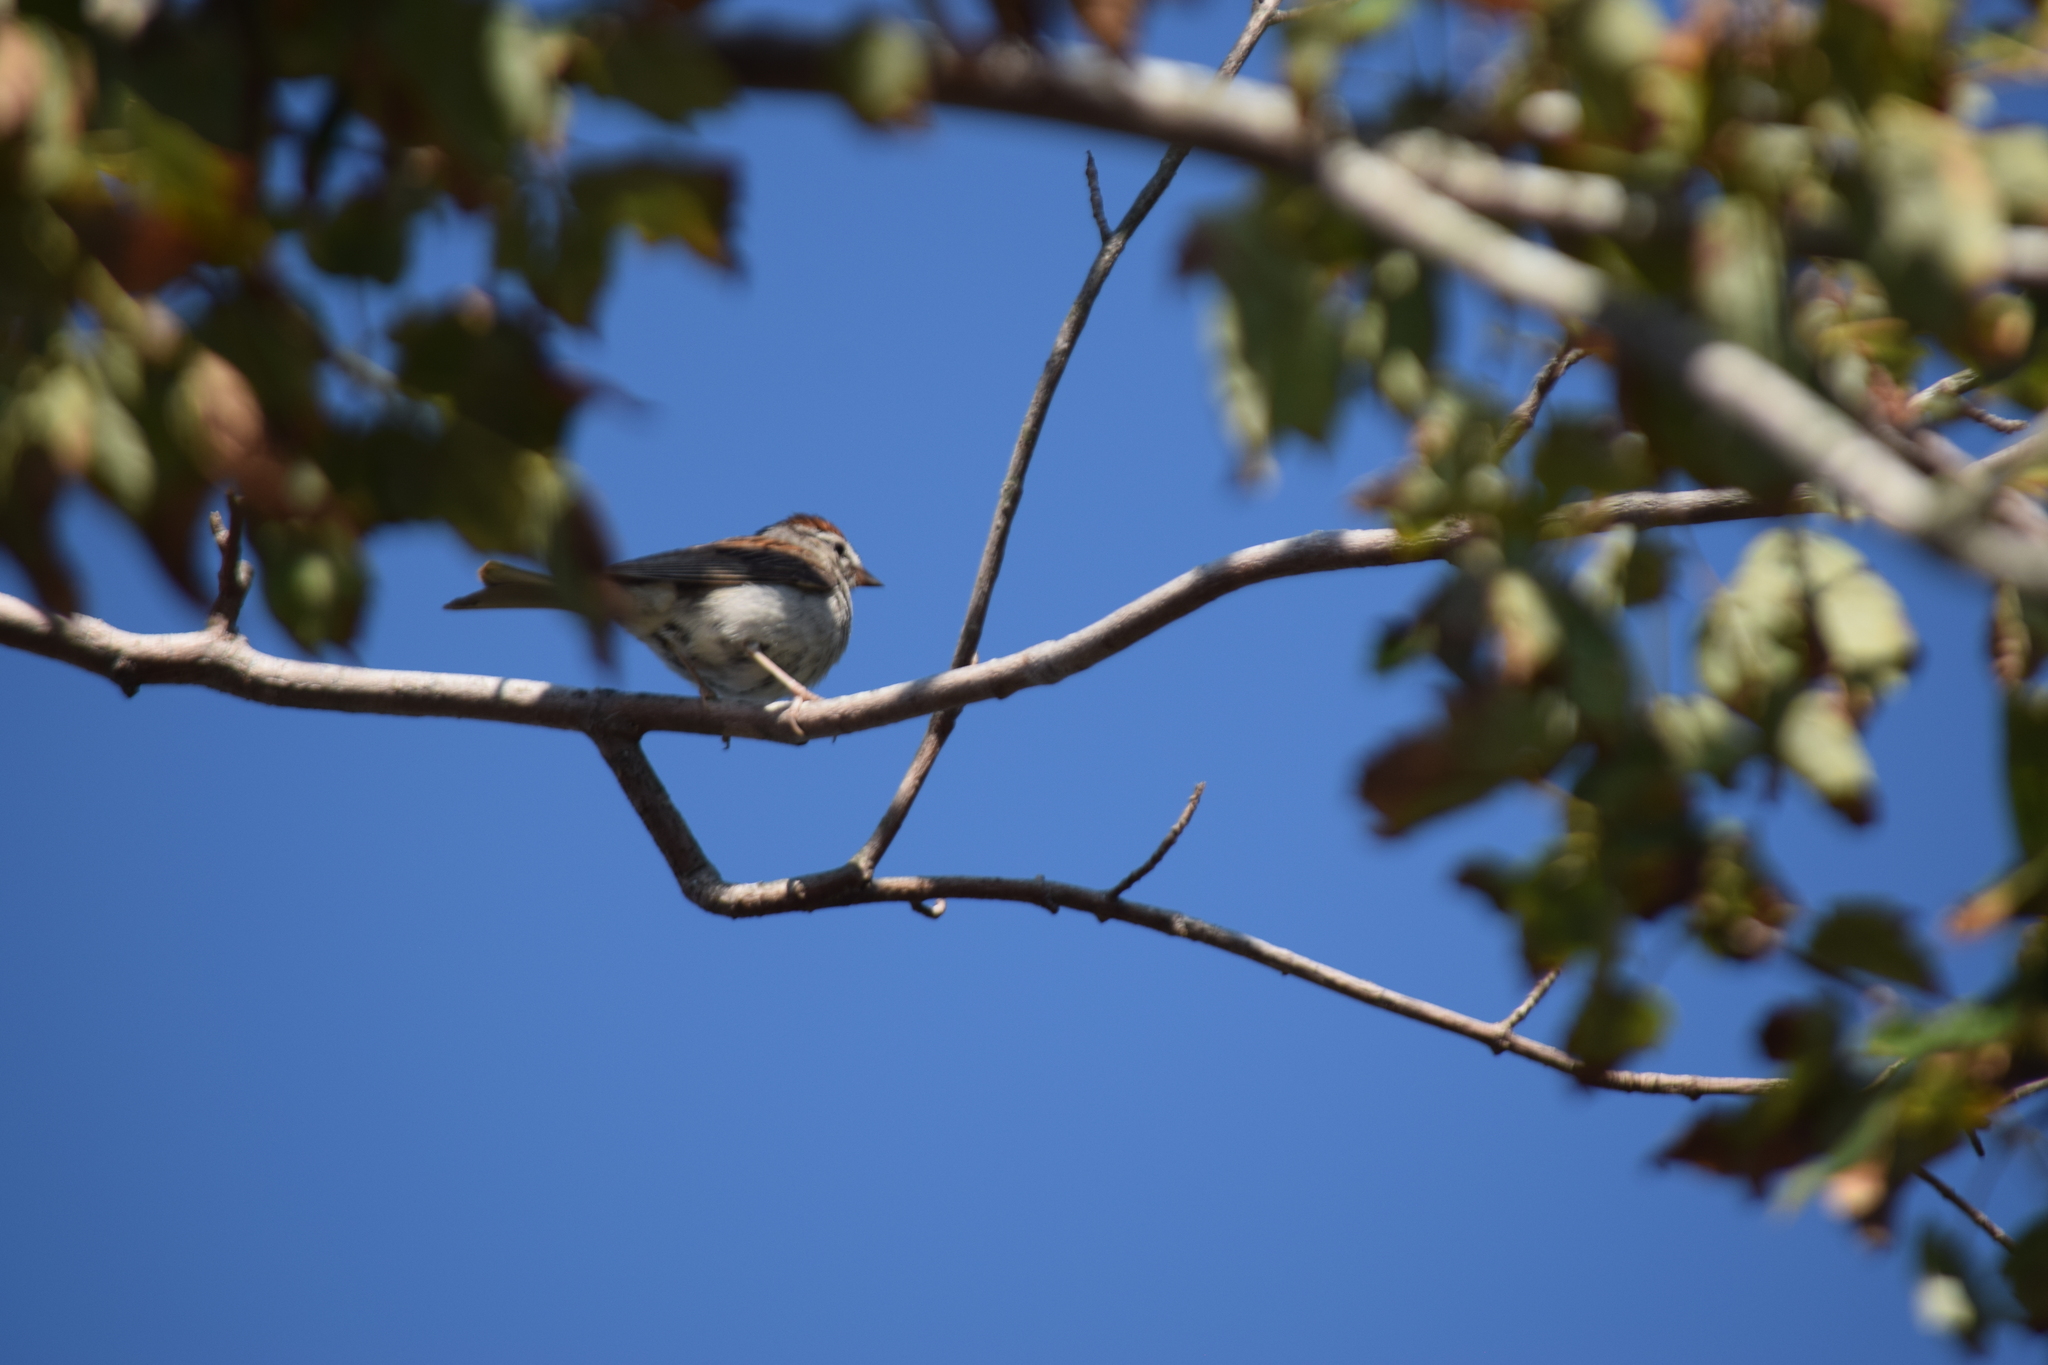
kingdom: Animalia
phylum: Chordata
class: Aves
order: Passeriformes
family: Passerellidae
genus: Spizella
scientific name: Spizella passerina
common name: Chipping sparrow
